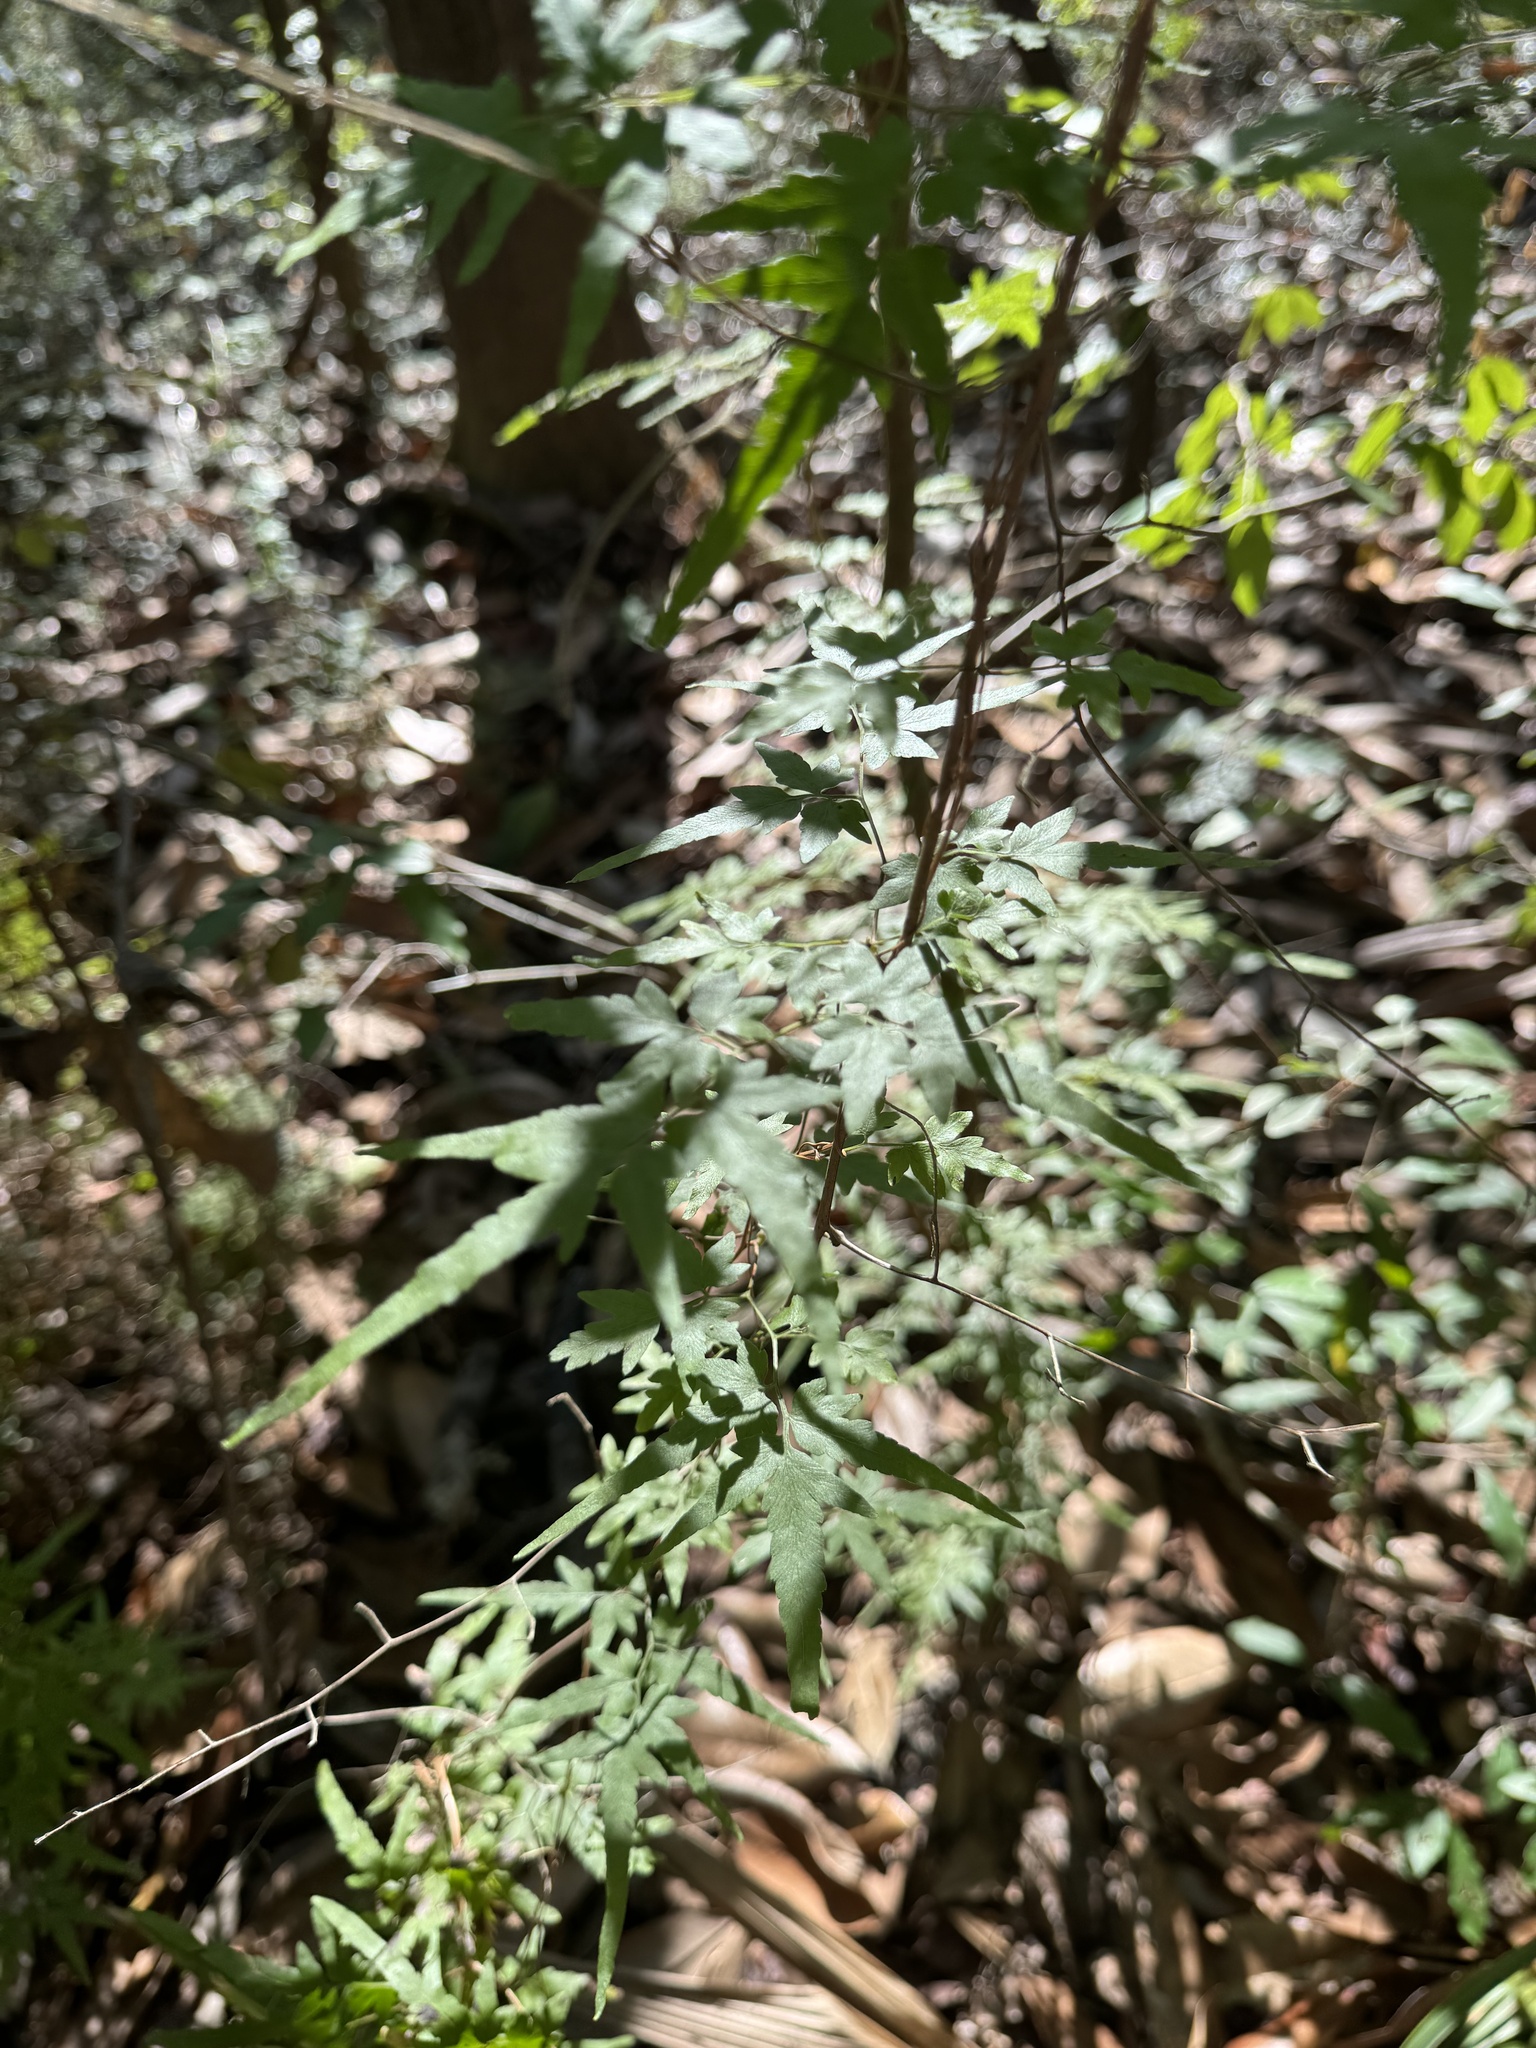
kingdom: Plantae
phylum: Tracheophyta
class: Polypodiopsida
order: Schizaeales
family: Lygodiaceae
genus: Lygodium
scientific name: Lygodium japonicum
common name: Japanese climbing fern
